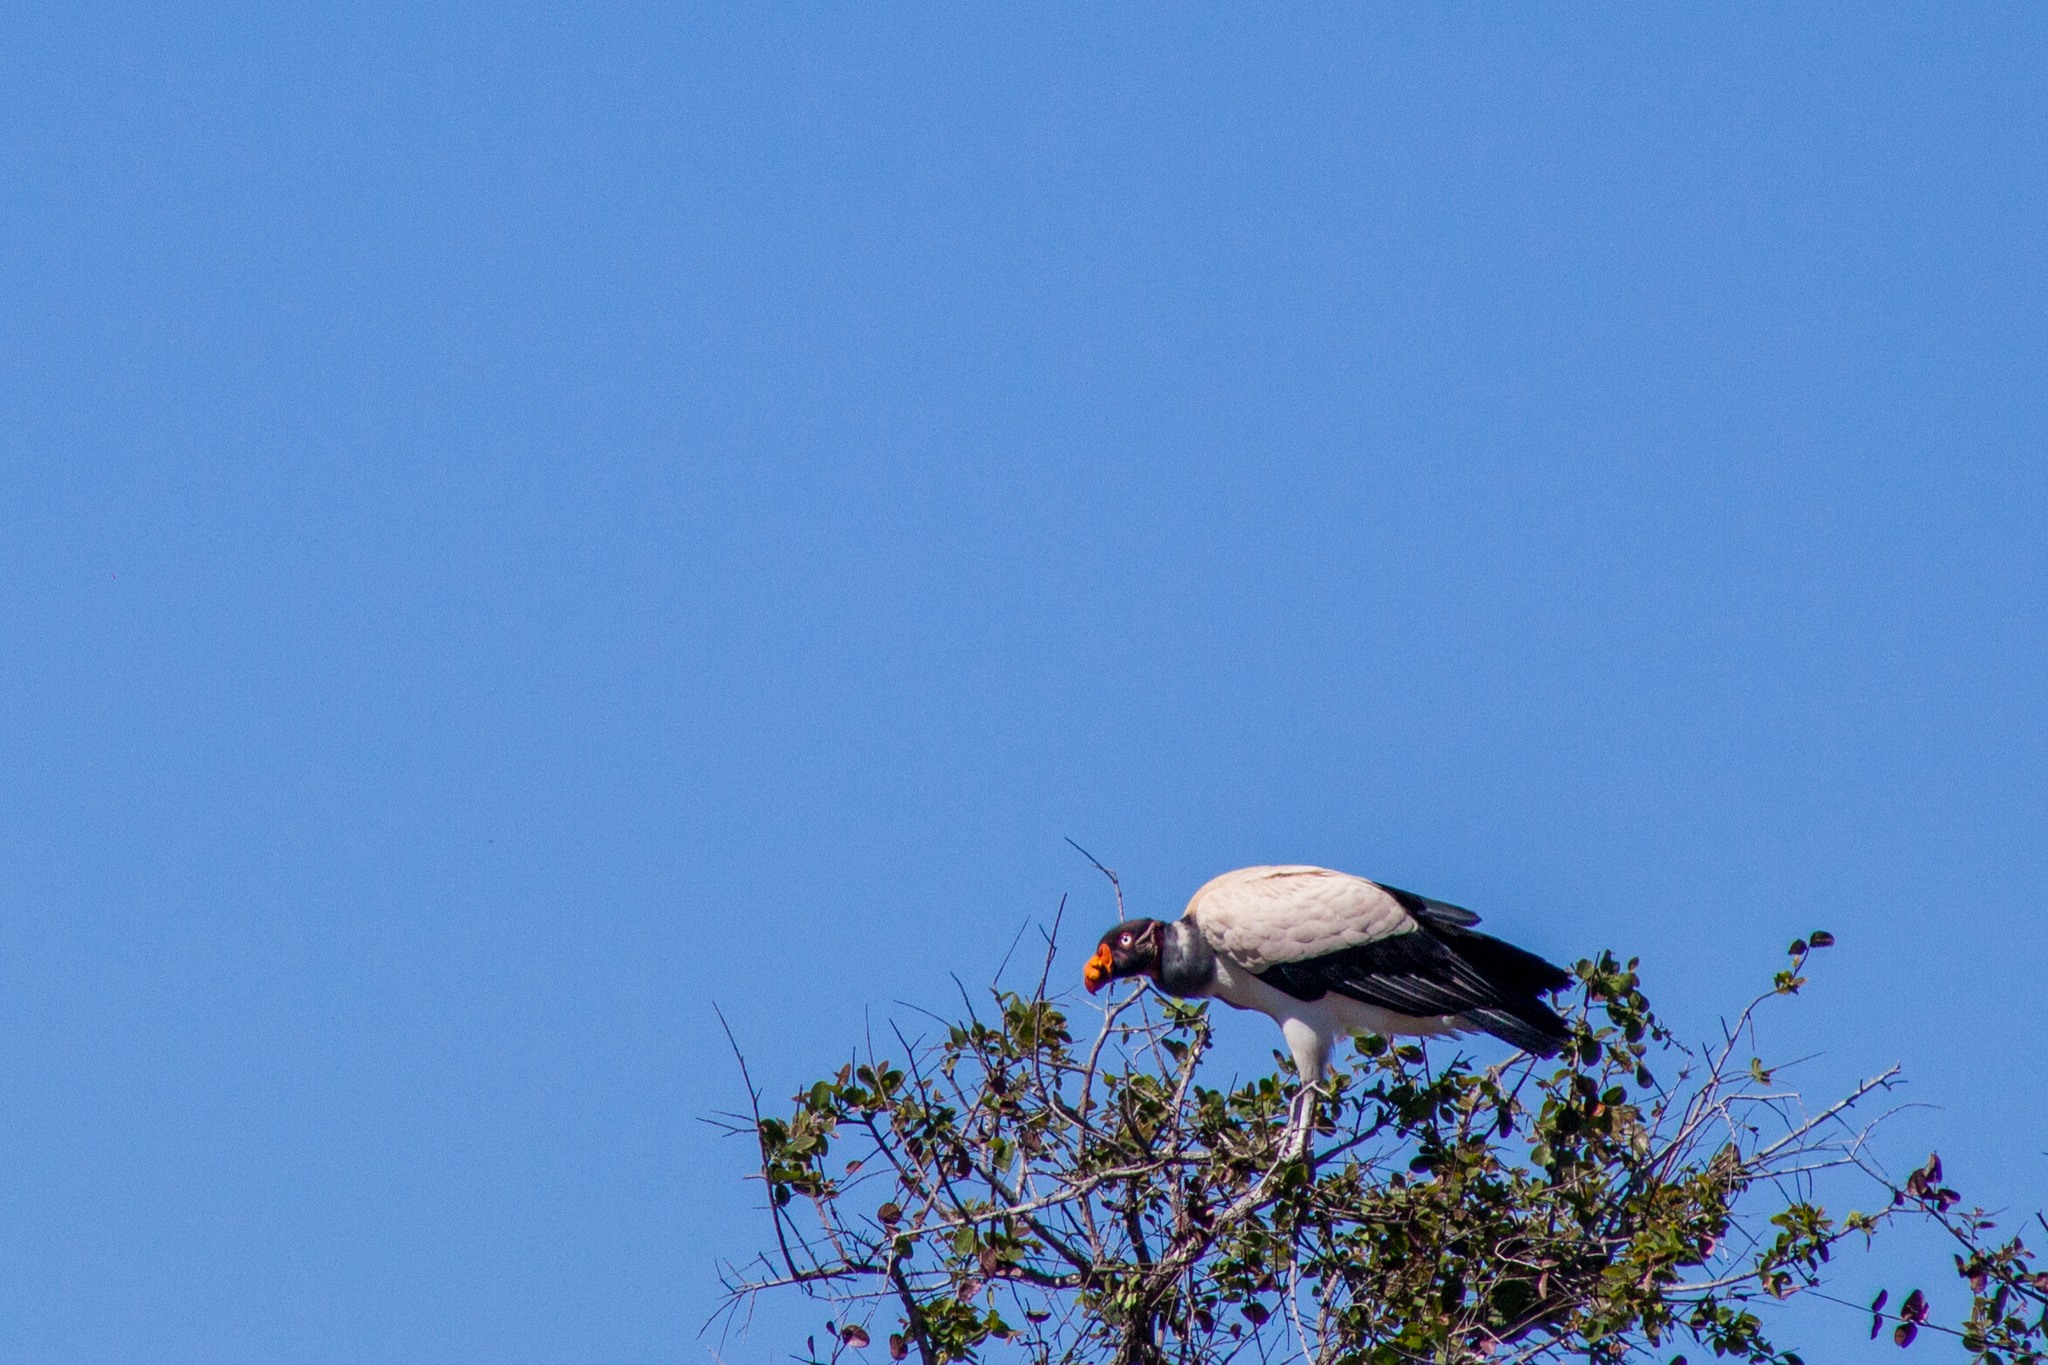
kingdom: Animalia
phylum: Chordata
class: Aves
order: Accipitriformes
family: Cathartidae
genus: Sarcoramphus
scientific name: Sarcoramphus papa
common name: King vulture
